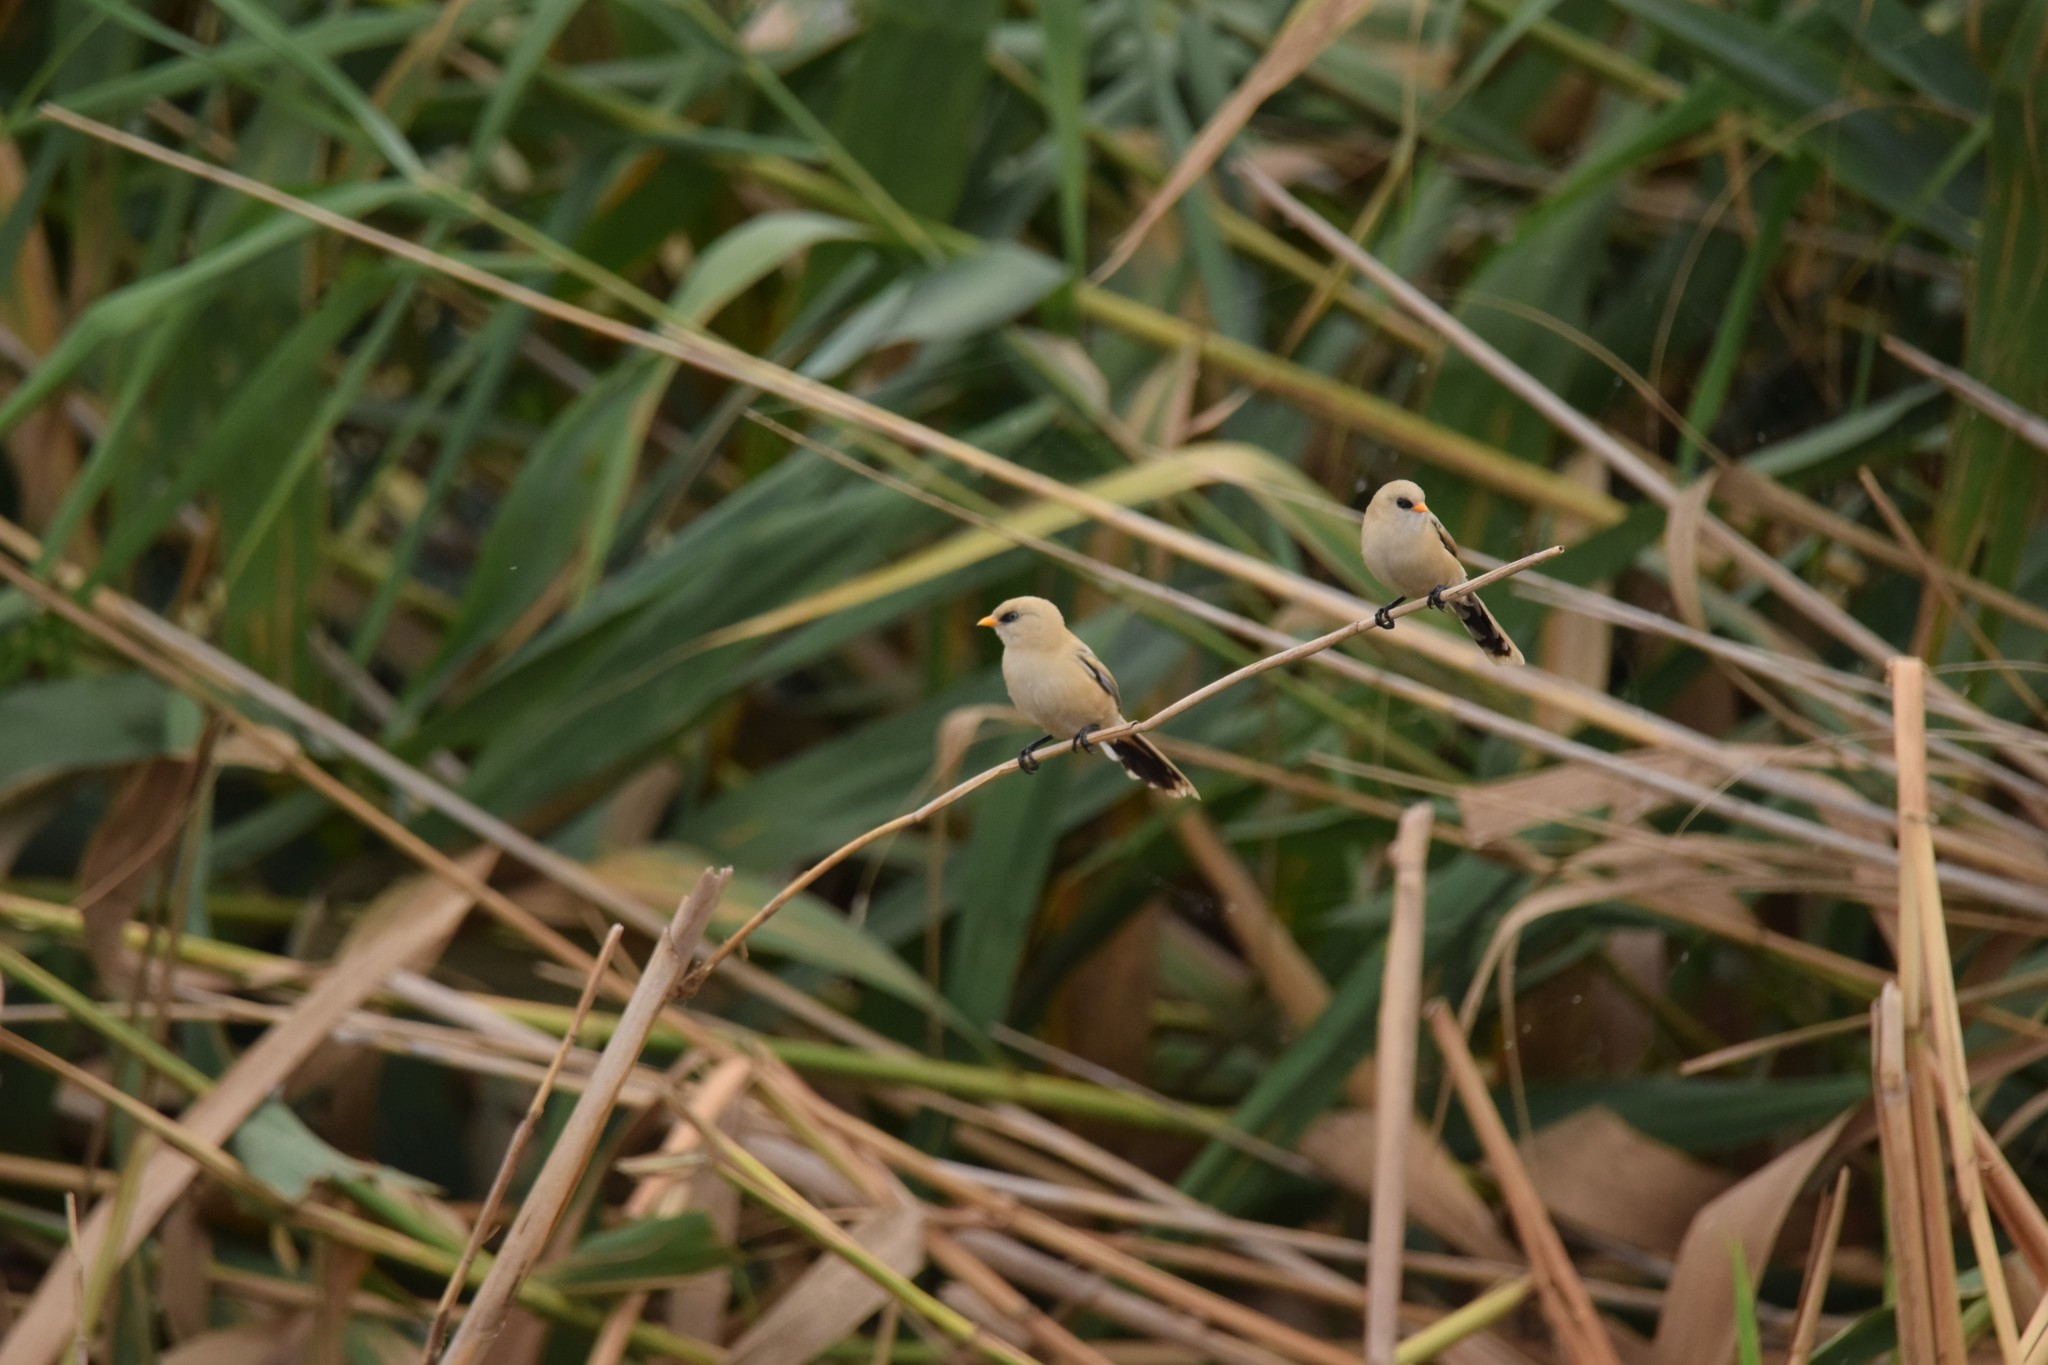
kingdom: Animalia
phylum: Chordata
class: Aves
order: Passeriformes
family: Panuridae
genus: Panurus
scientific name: Panurus biarmicus
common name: Bearded reedling
